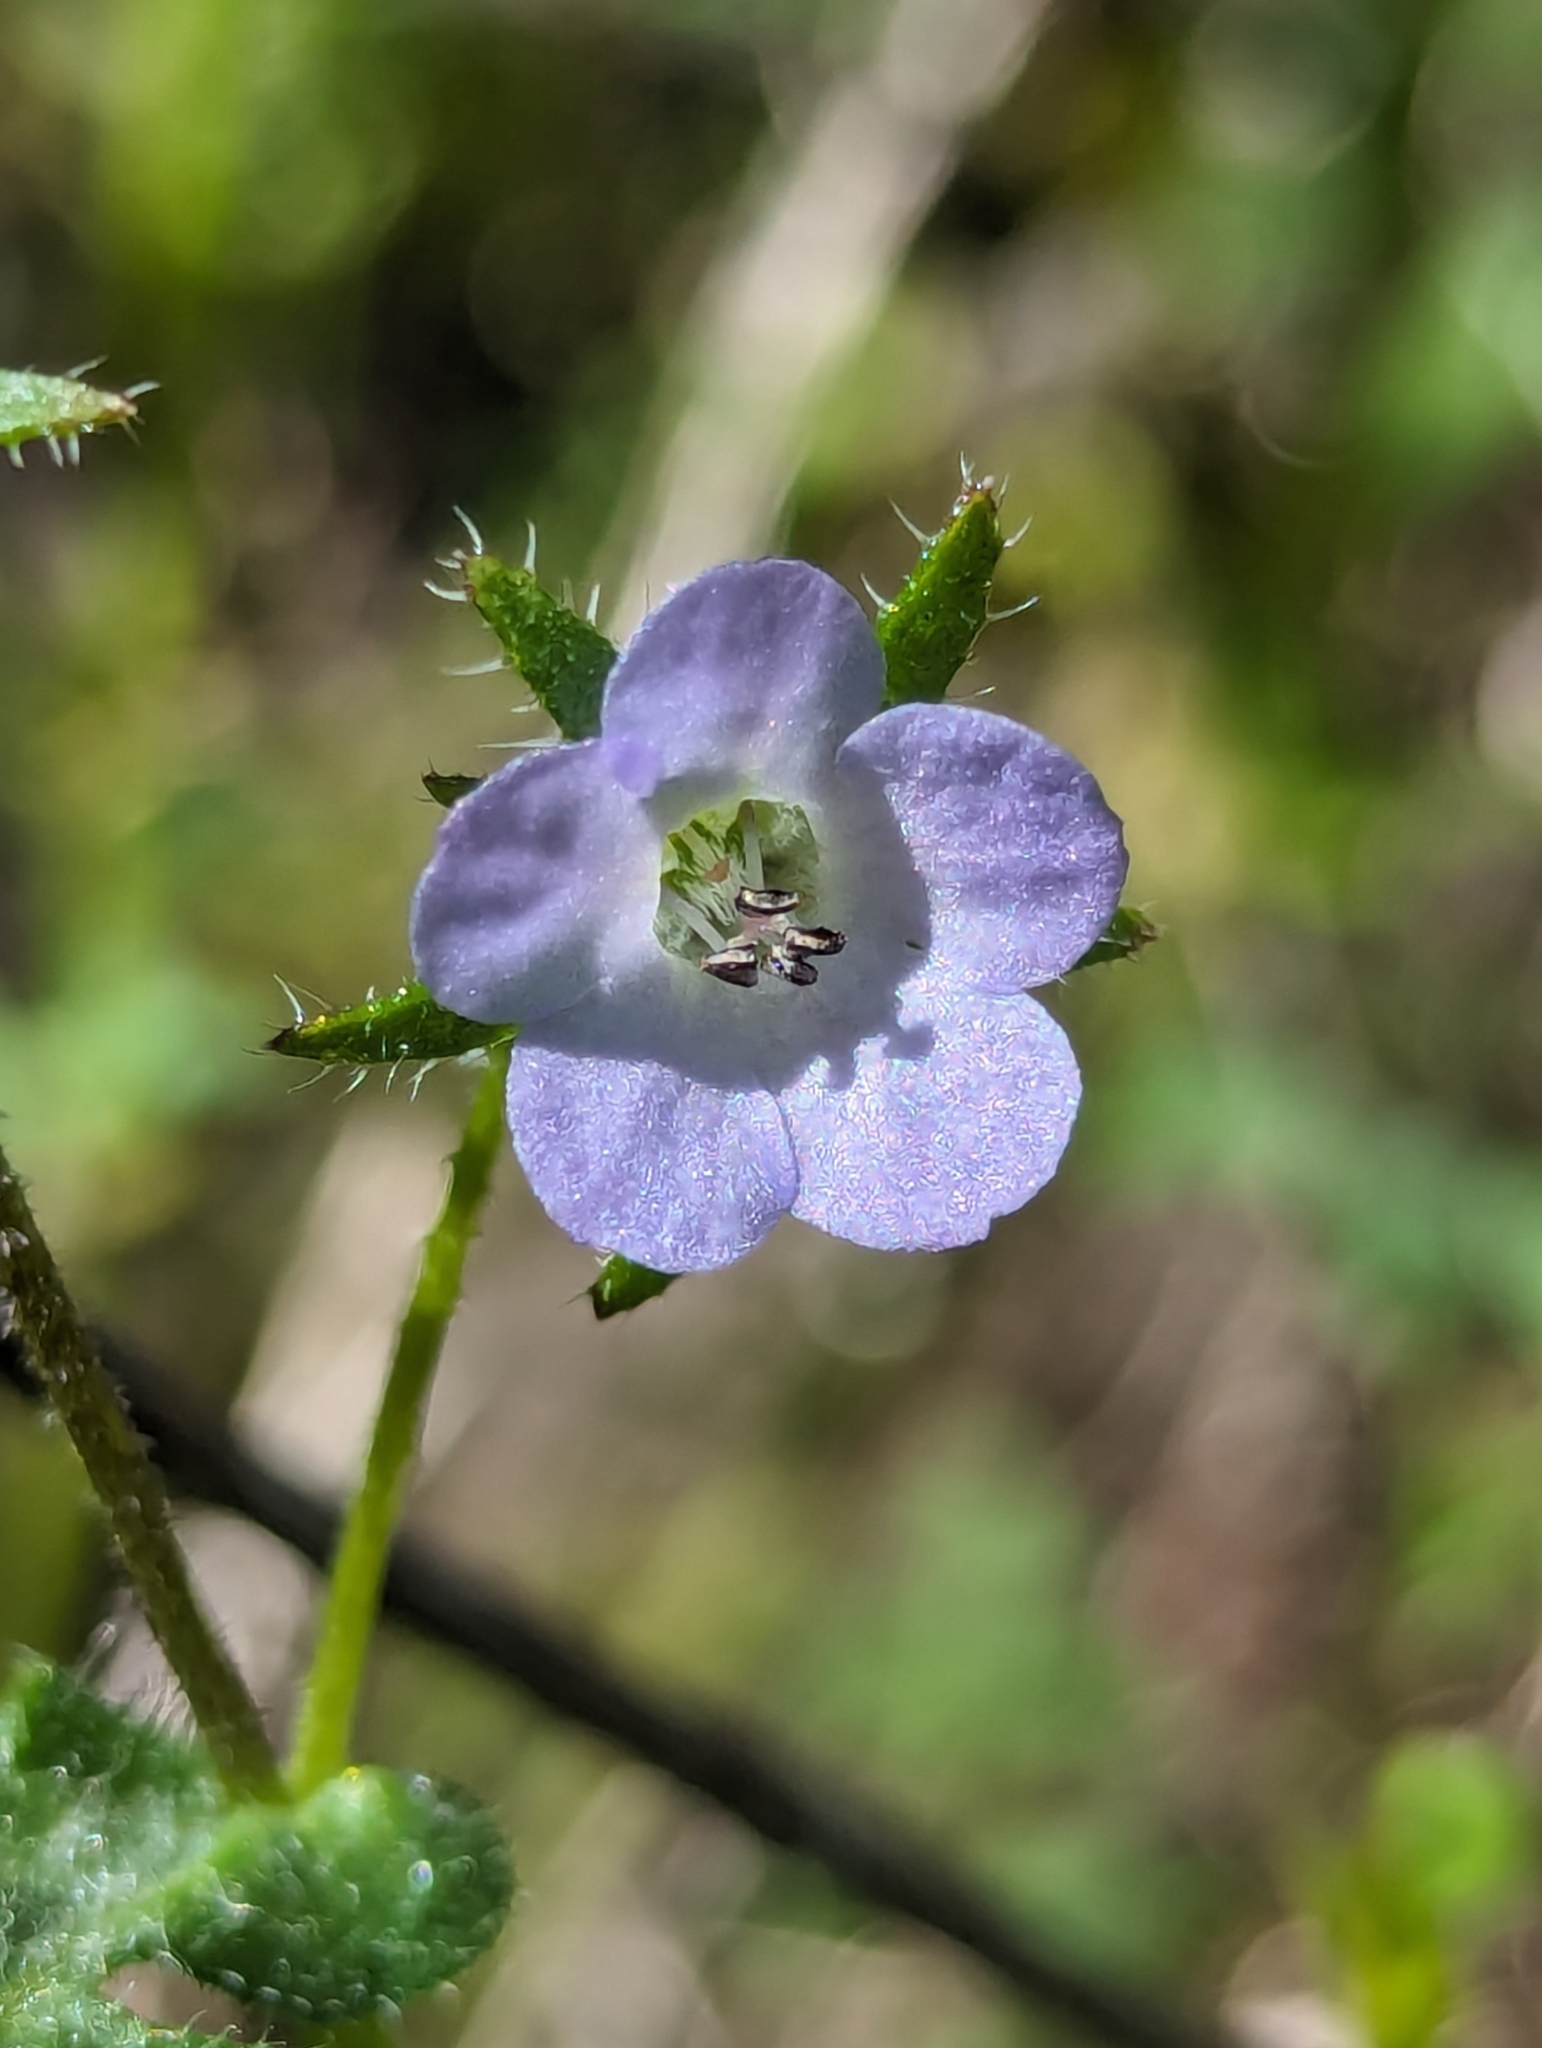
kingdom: Plantae
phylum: Tracheophyta
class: Magnoliopsida
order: Boraginales
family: Hydrophyllaceae
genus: Pholistoma
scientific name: Pholistoma auritum
